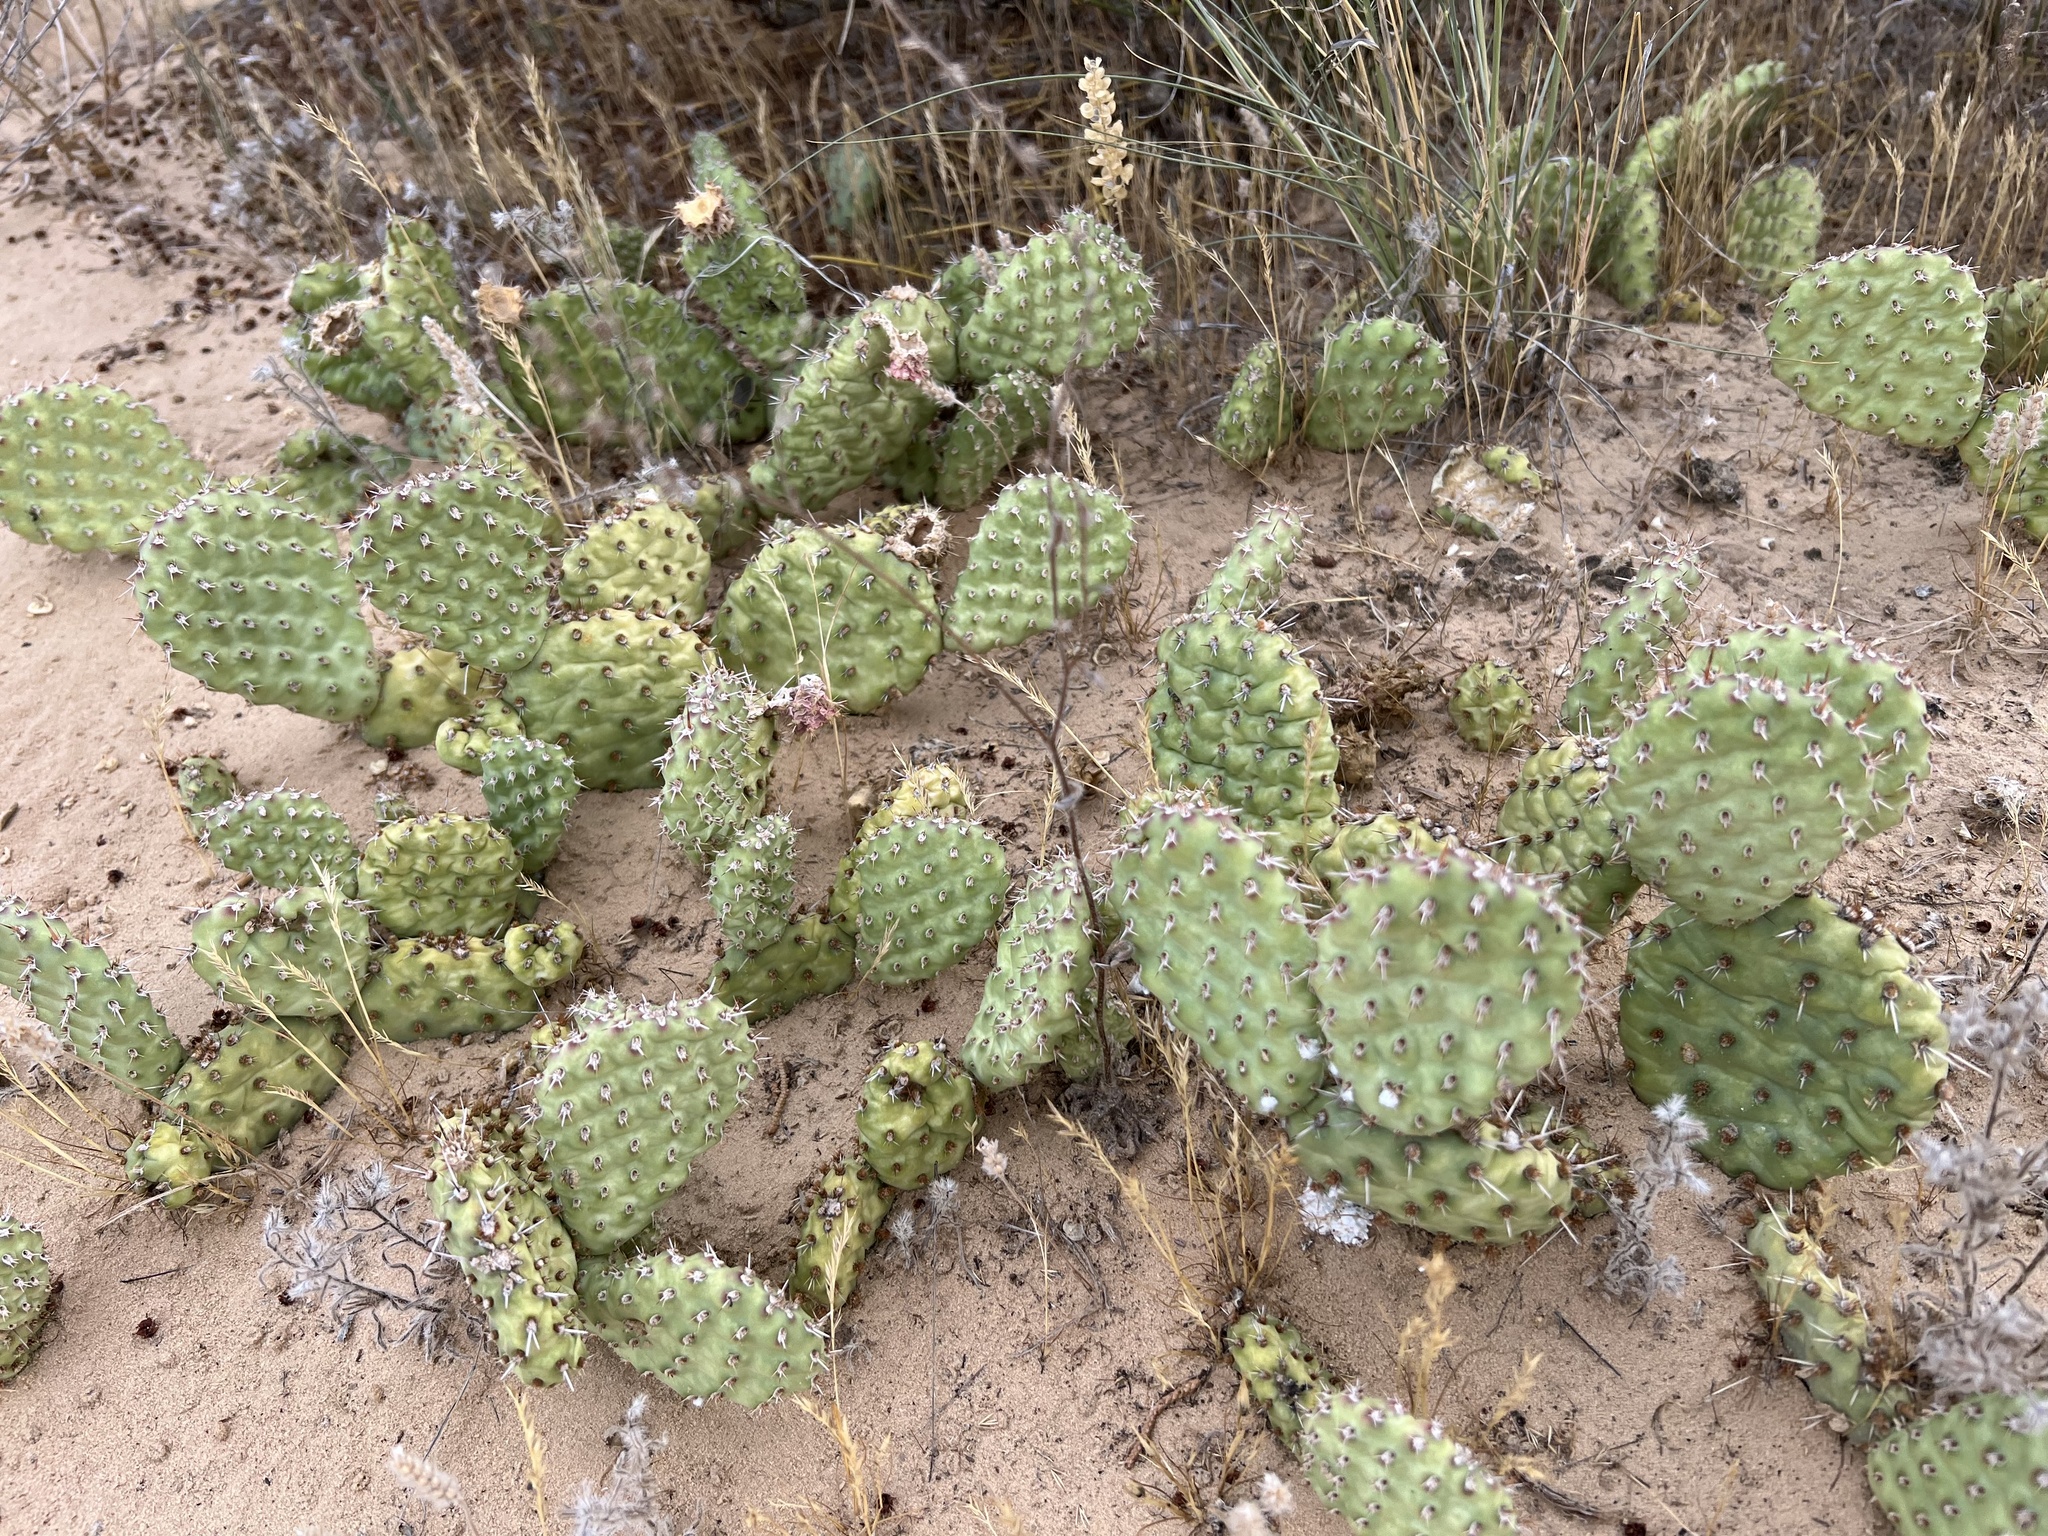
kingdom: Plantae
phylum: Tracheophyta
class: Magnoliopsida
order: Caryophyllales
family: Cactaceae
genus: Opuntia
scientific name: Opuntia polyacantha
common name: Plains prickly-pear
